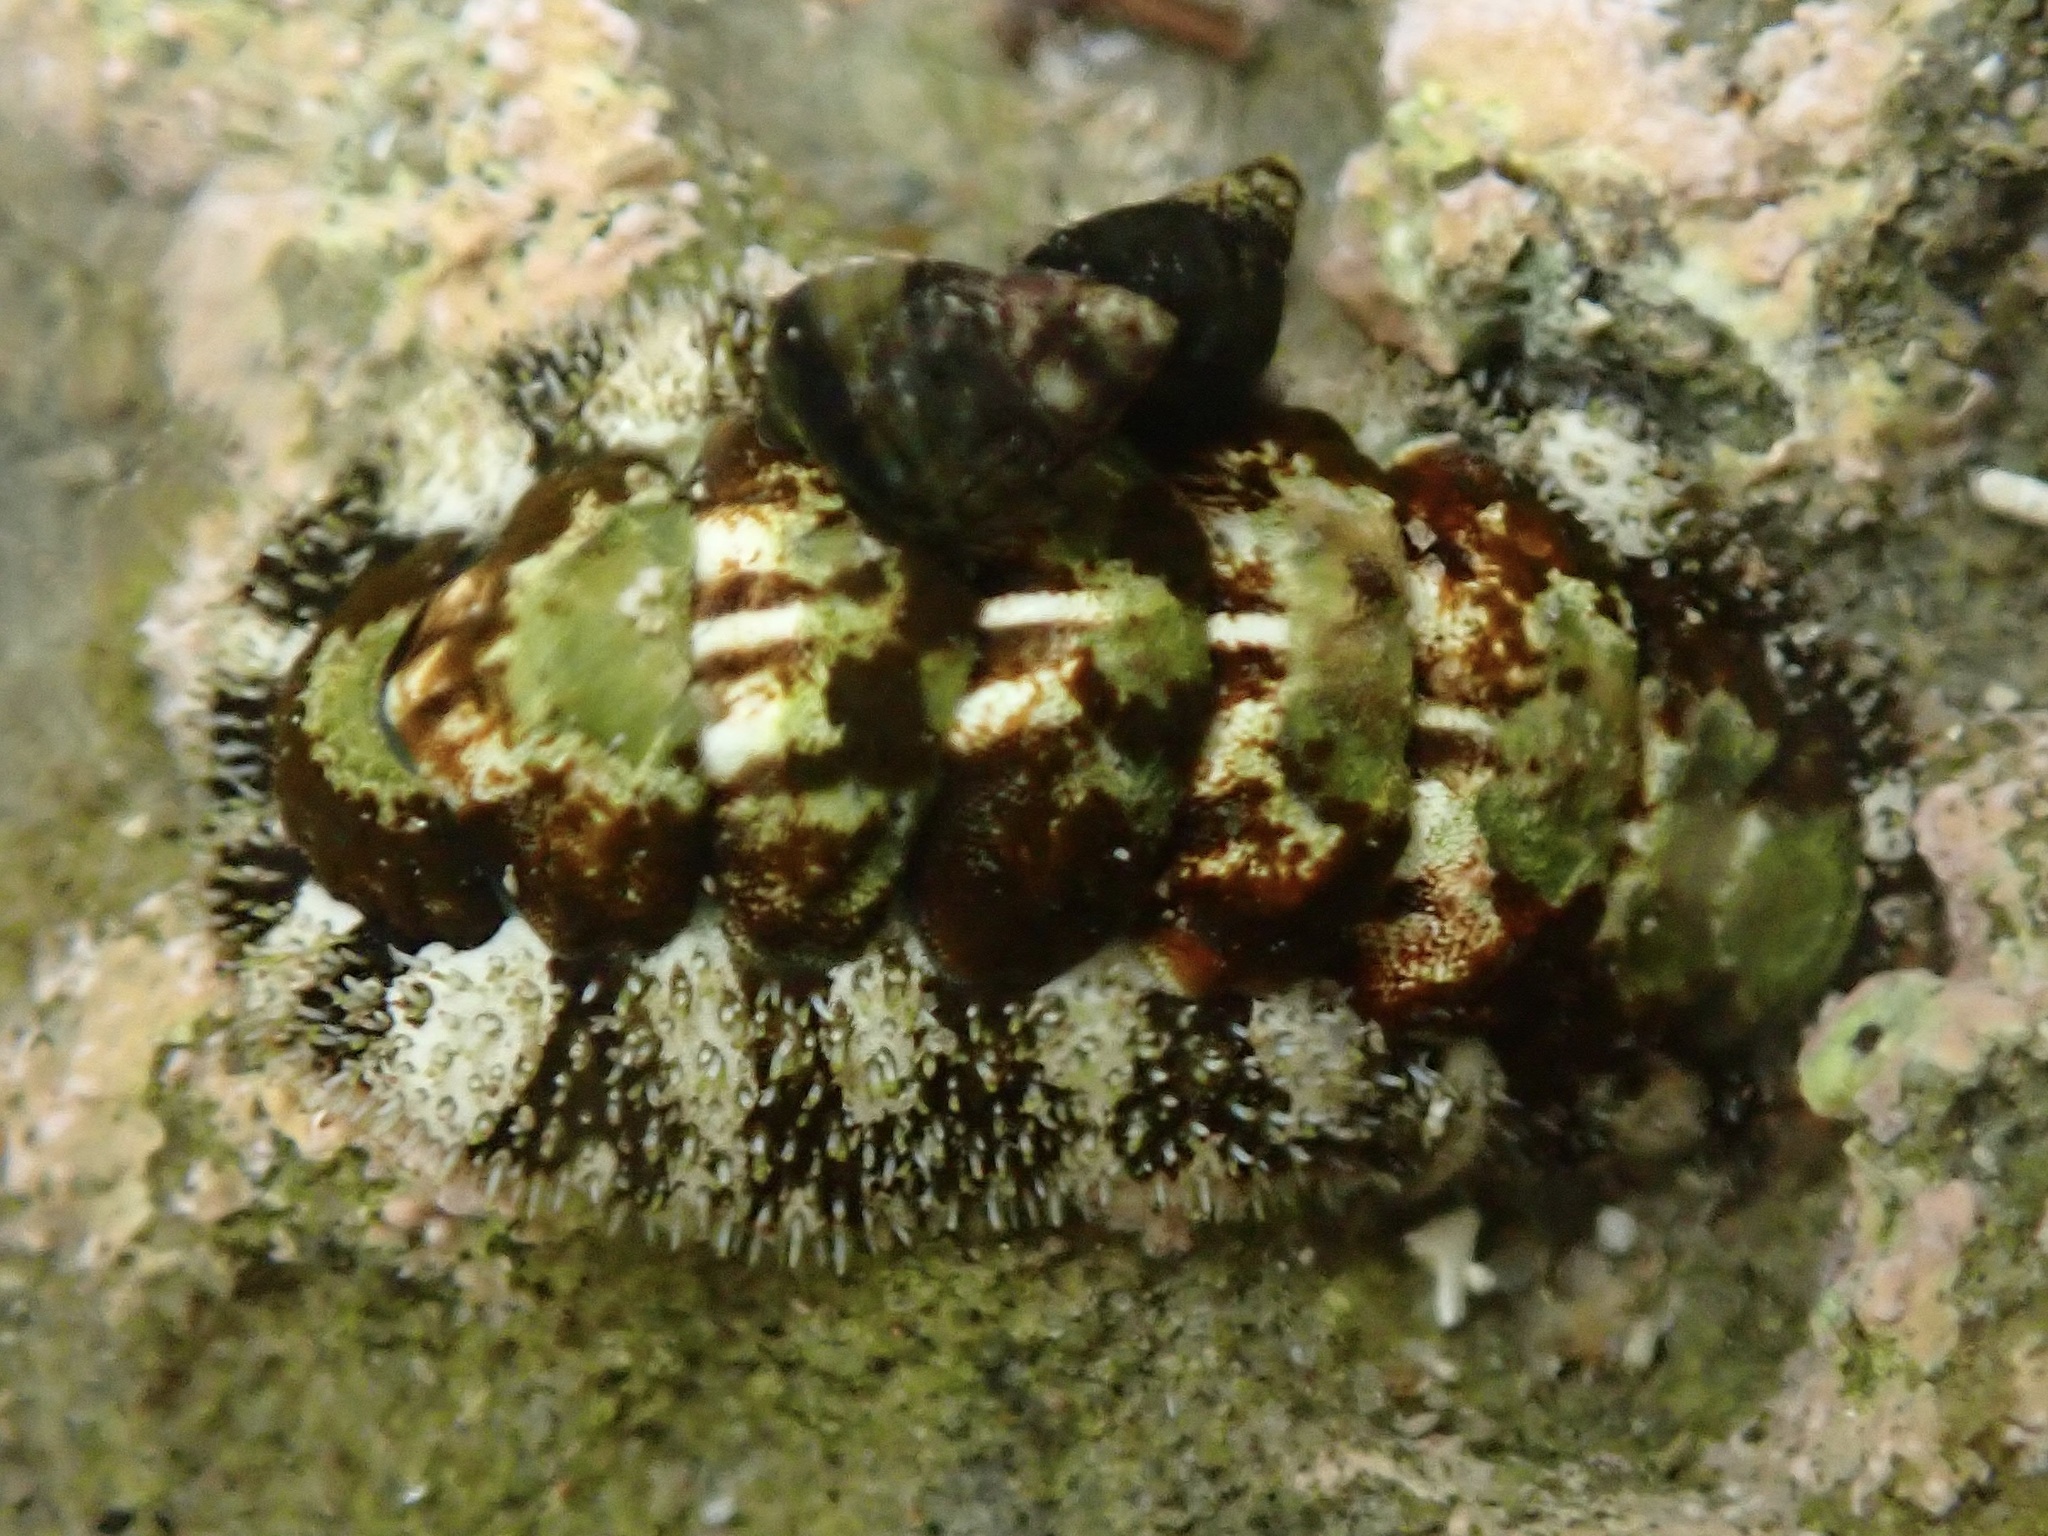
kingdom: Animalia
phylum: Mollusca
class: Polyplacophora
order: Chitonida
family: Tonicellidae
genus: Nuttallina
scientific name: Nuttallina californica
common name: California nuttall chiton
